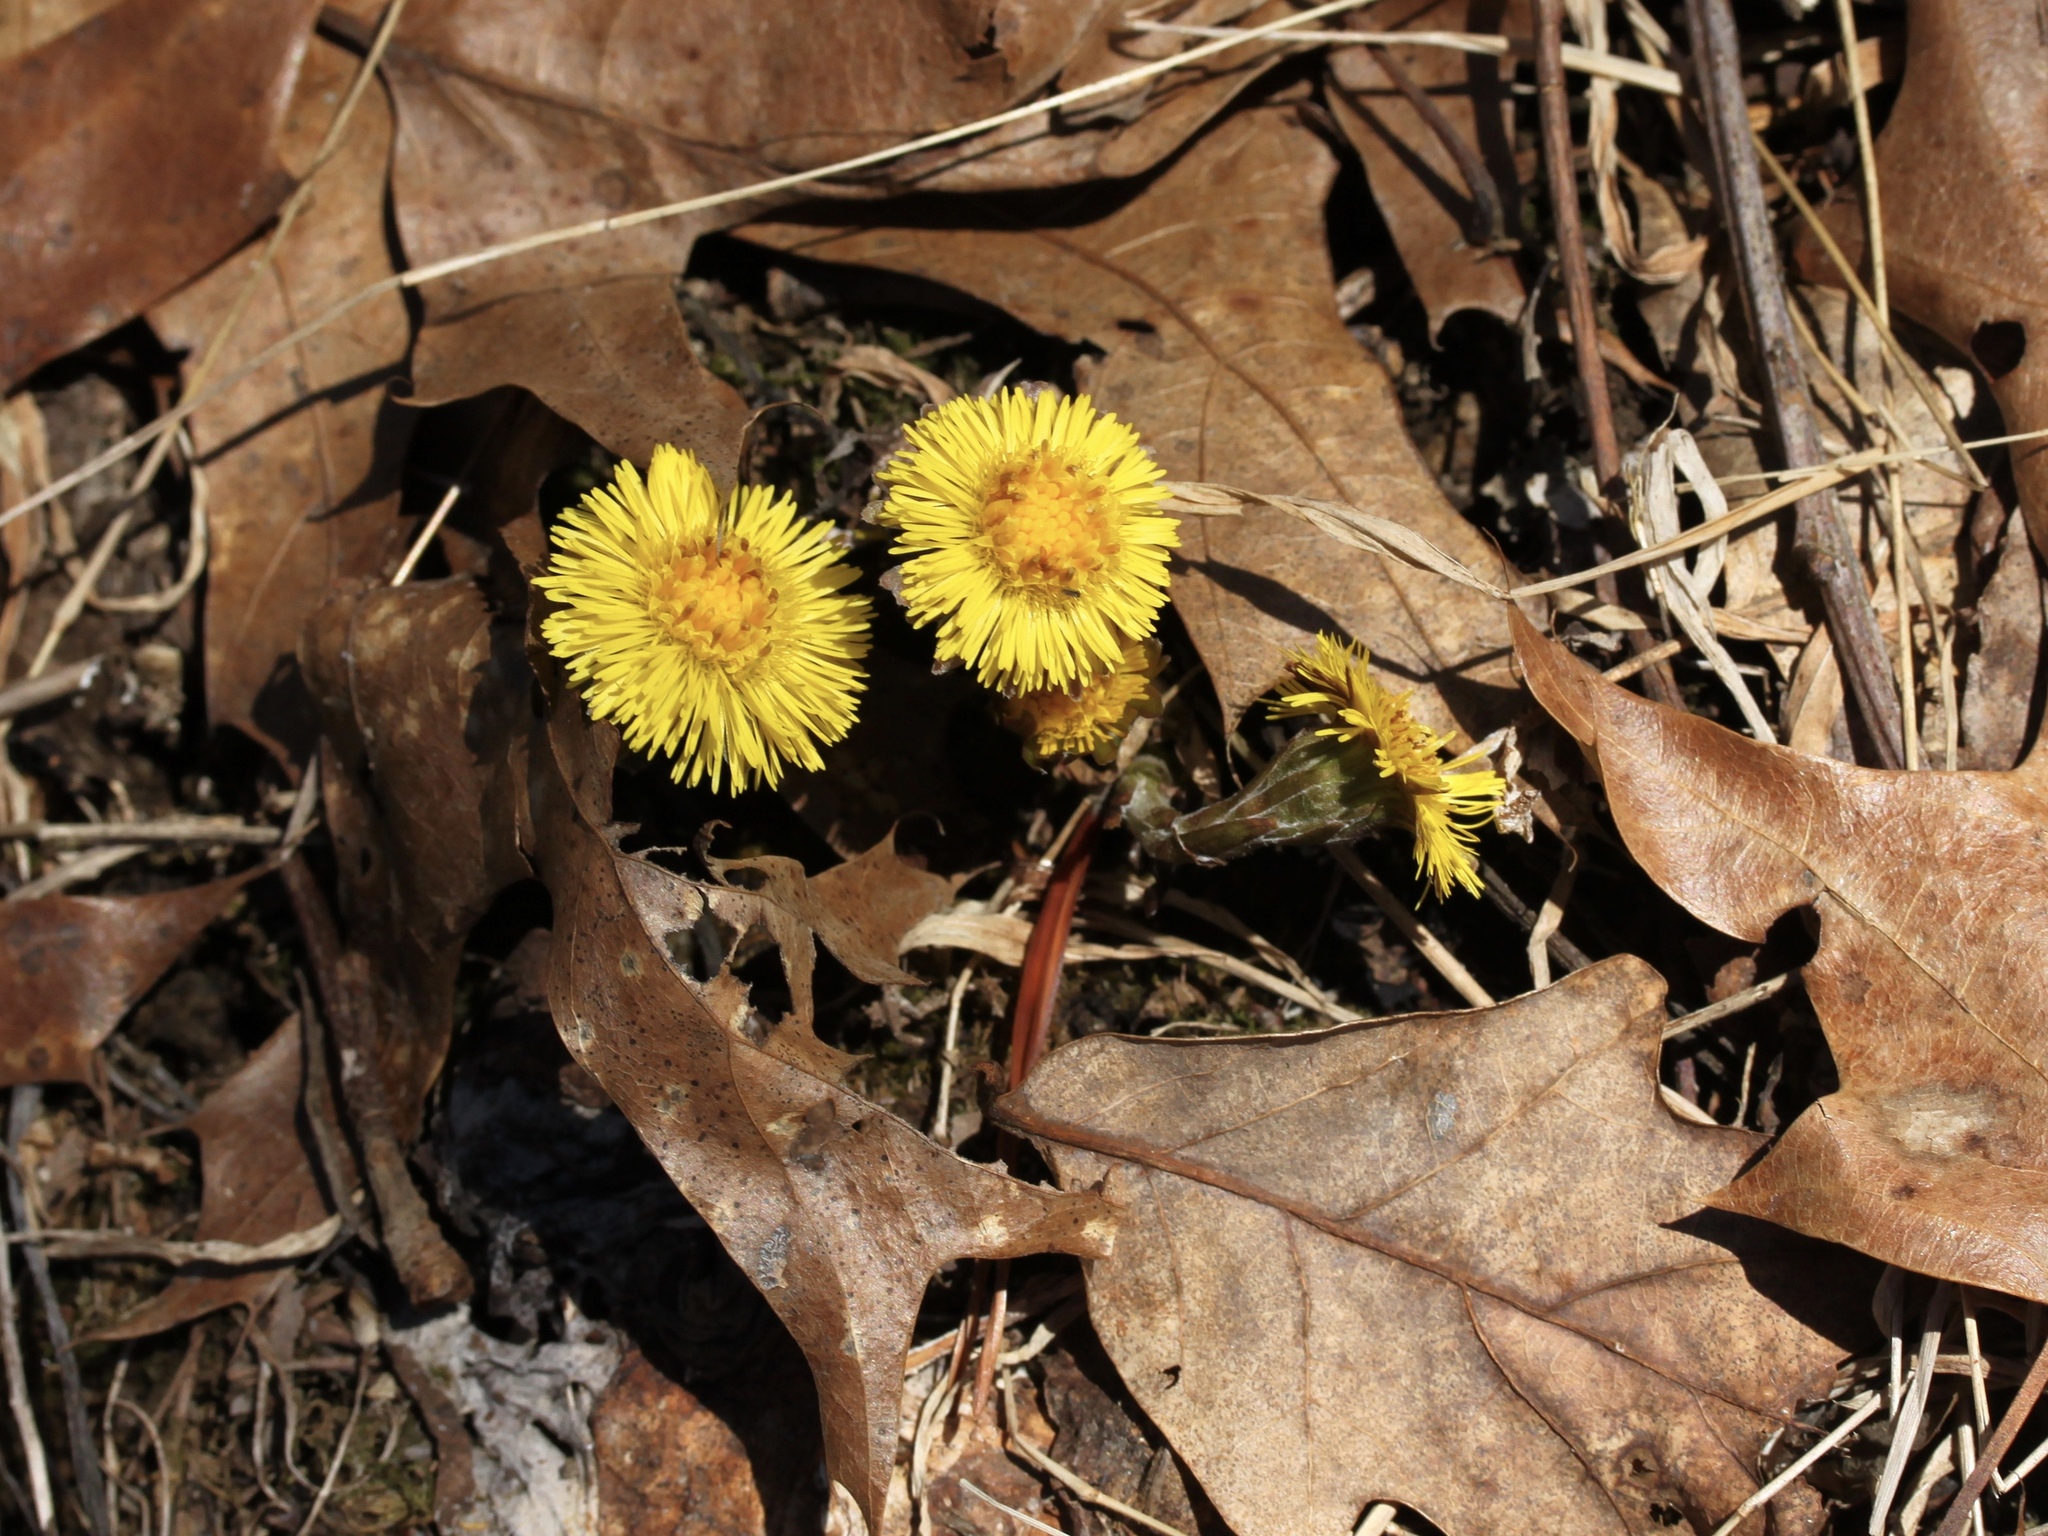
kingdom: Plantae
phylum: Tracheophyta
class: Magnoliopsida
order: Asterales
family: Asteraceae
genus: Tussilago
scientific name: Tussilago farfara
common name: Coltsfoot
